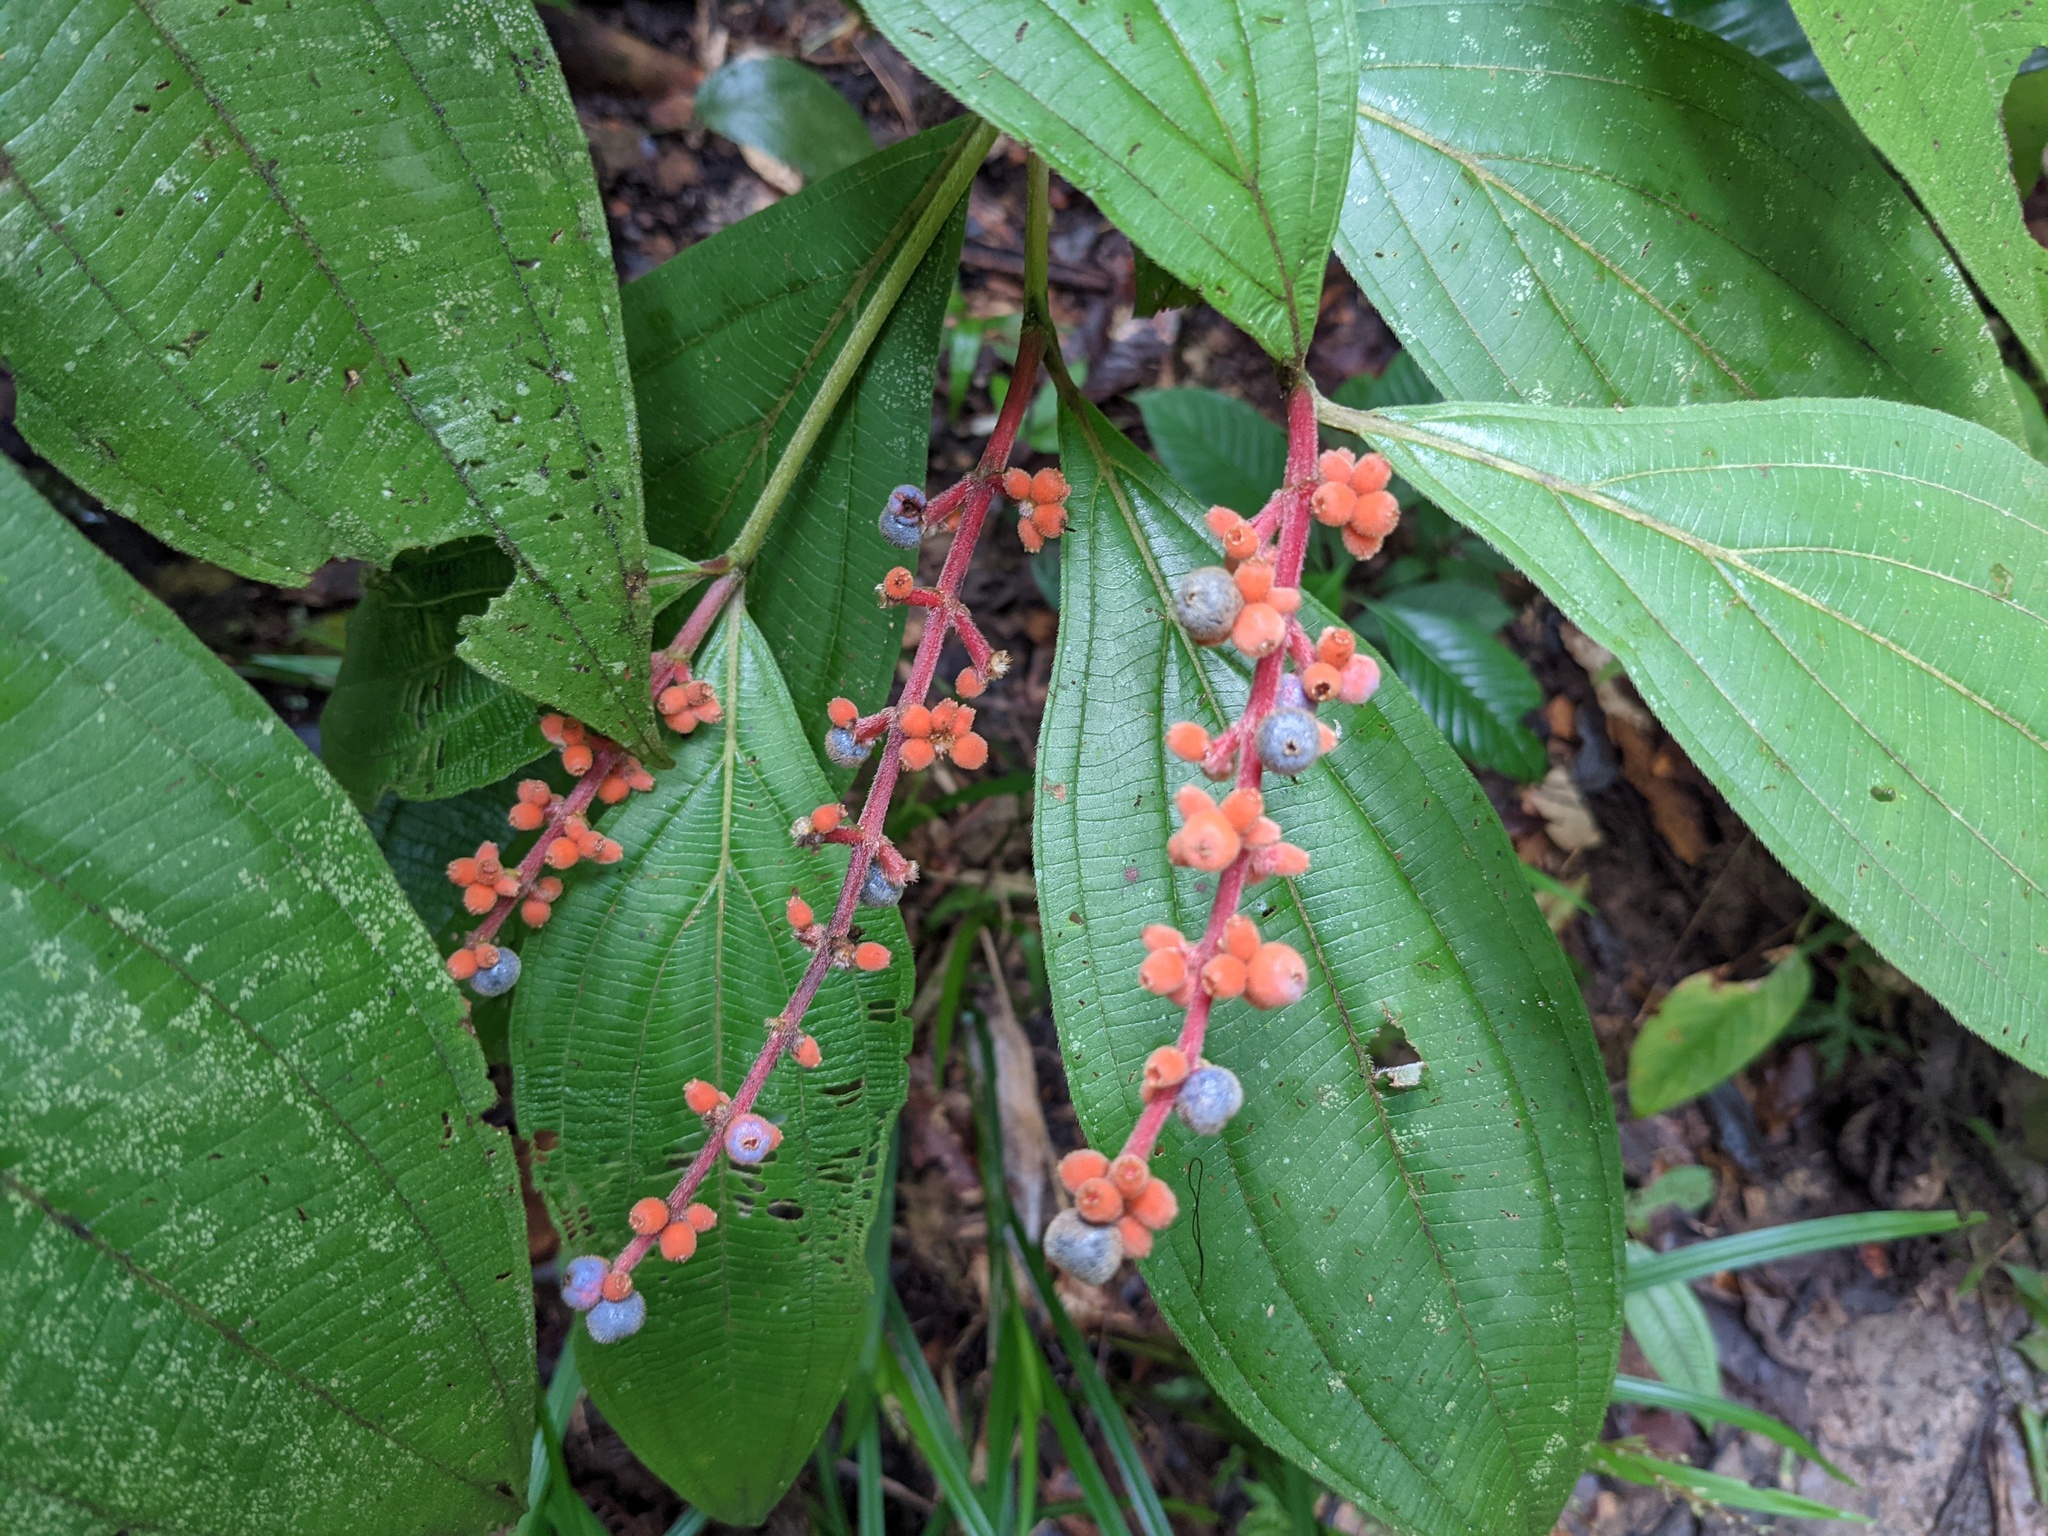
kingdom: Plantae
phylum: Tracheophyta
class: Magnoliopsida
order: Myrtales
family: Melastomataceae
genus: Miconia
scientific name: Miconia nervosa
